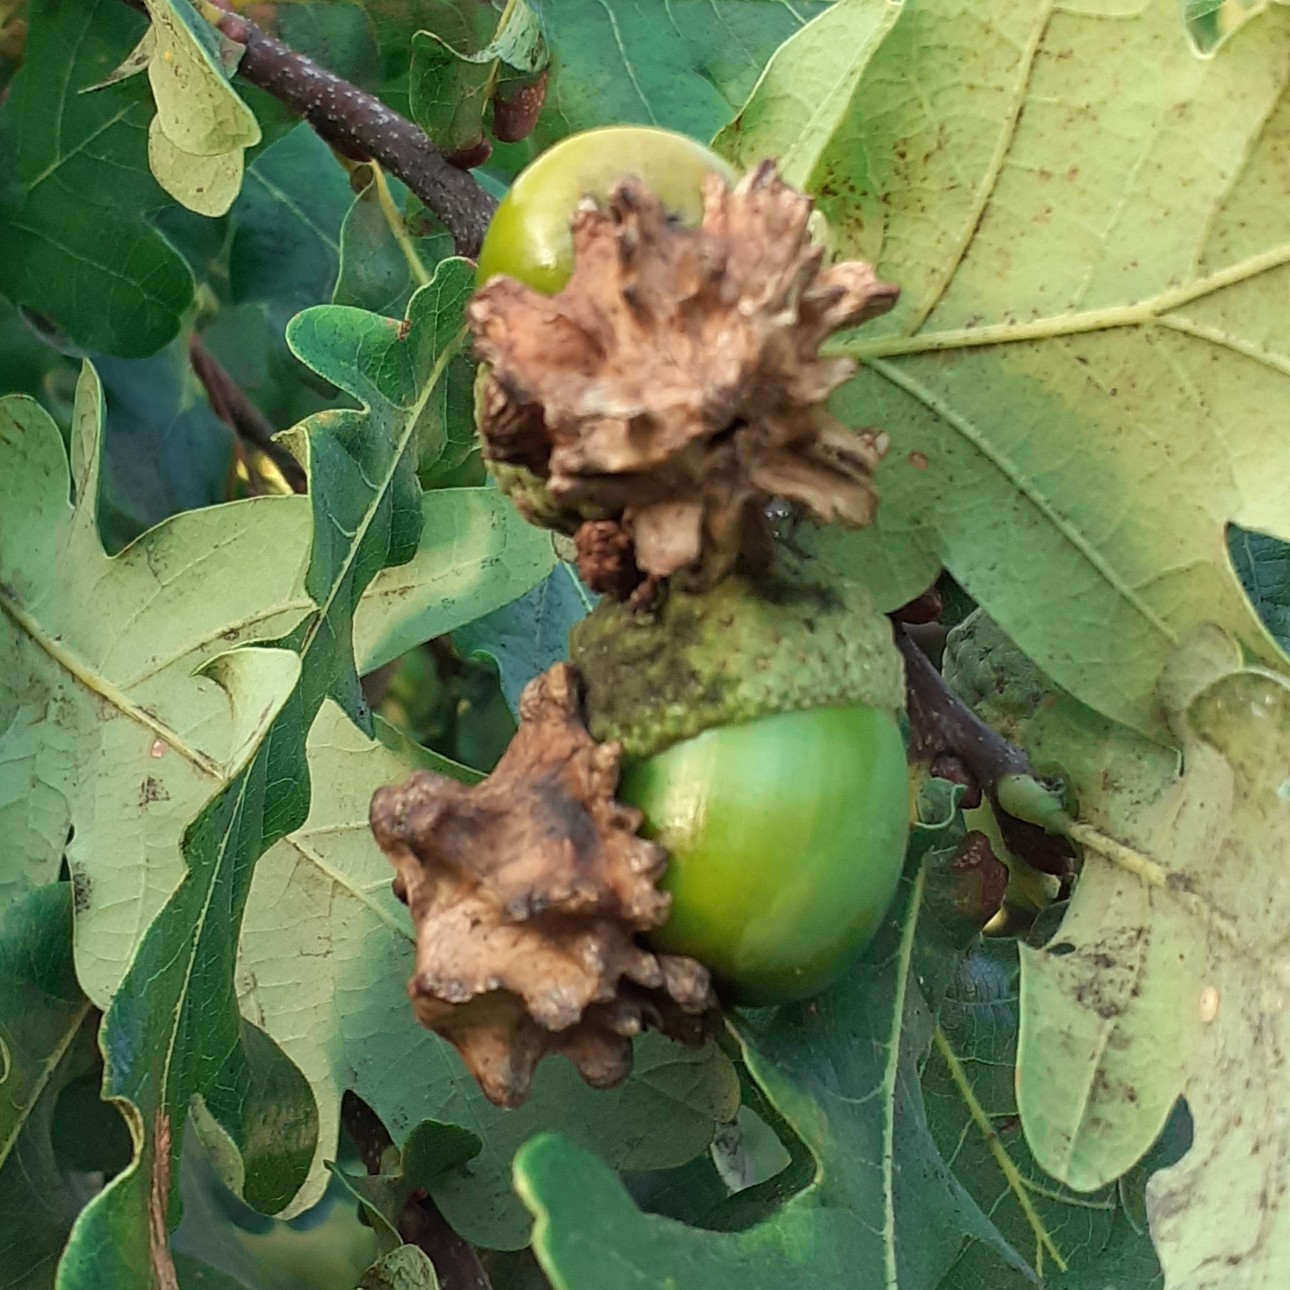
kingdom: Animalia
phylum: Arthropoda
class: Insecta
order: Hymenoptera
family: Cynipidae
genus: Andricus
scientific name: Andricus quercuscalicis
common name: Knopper gall
